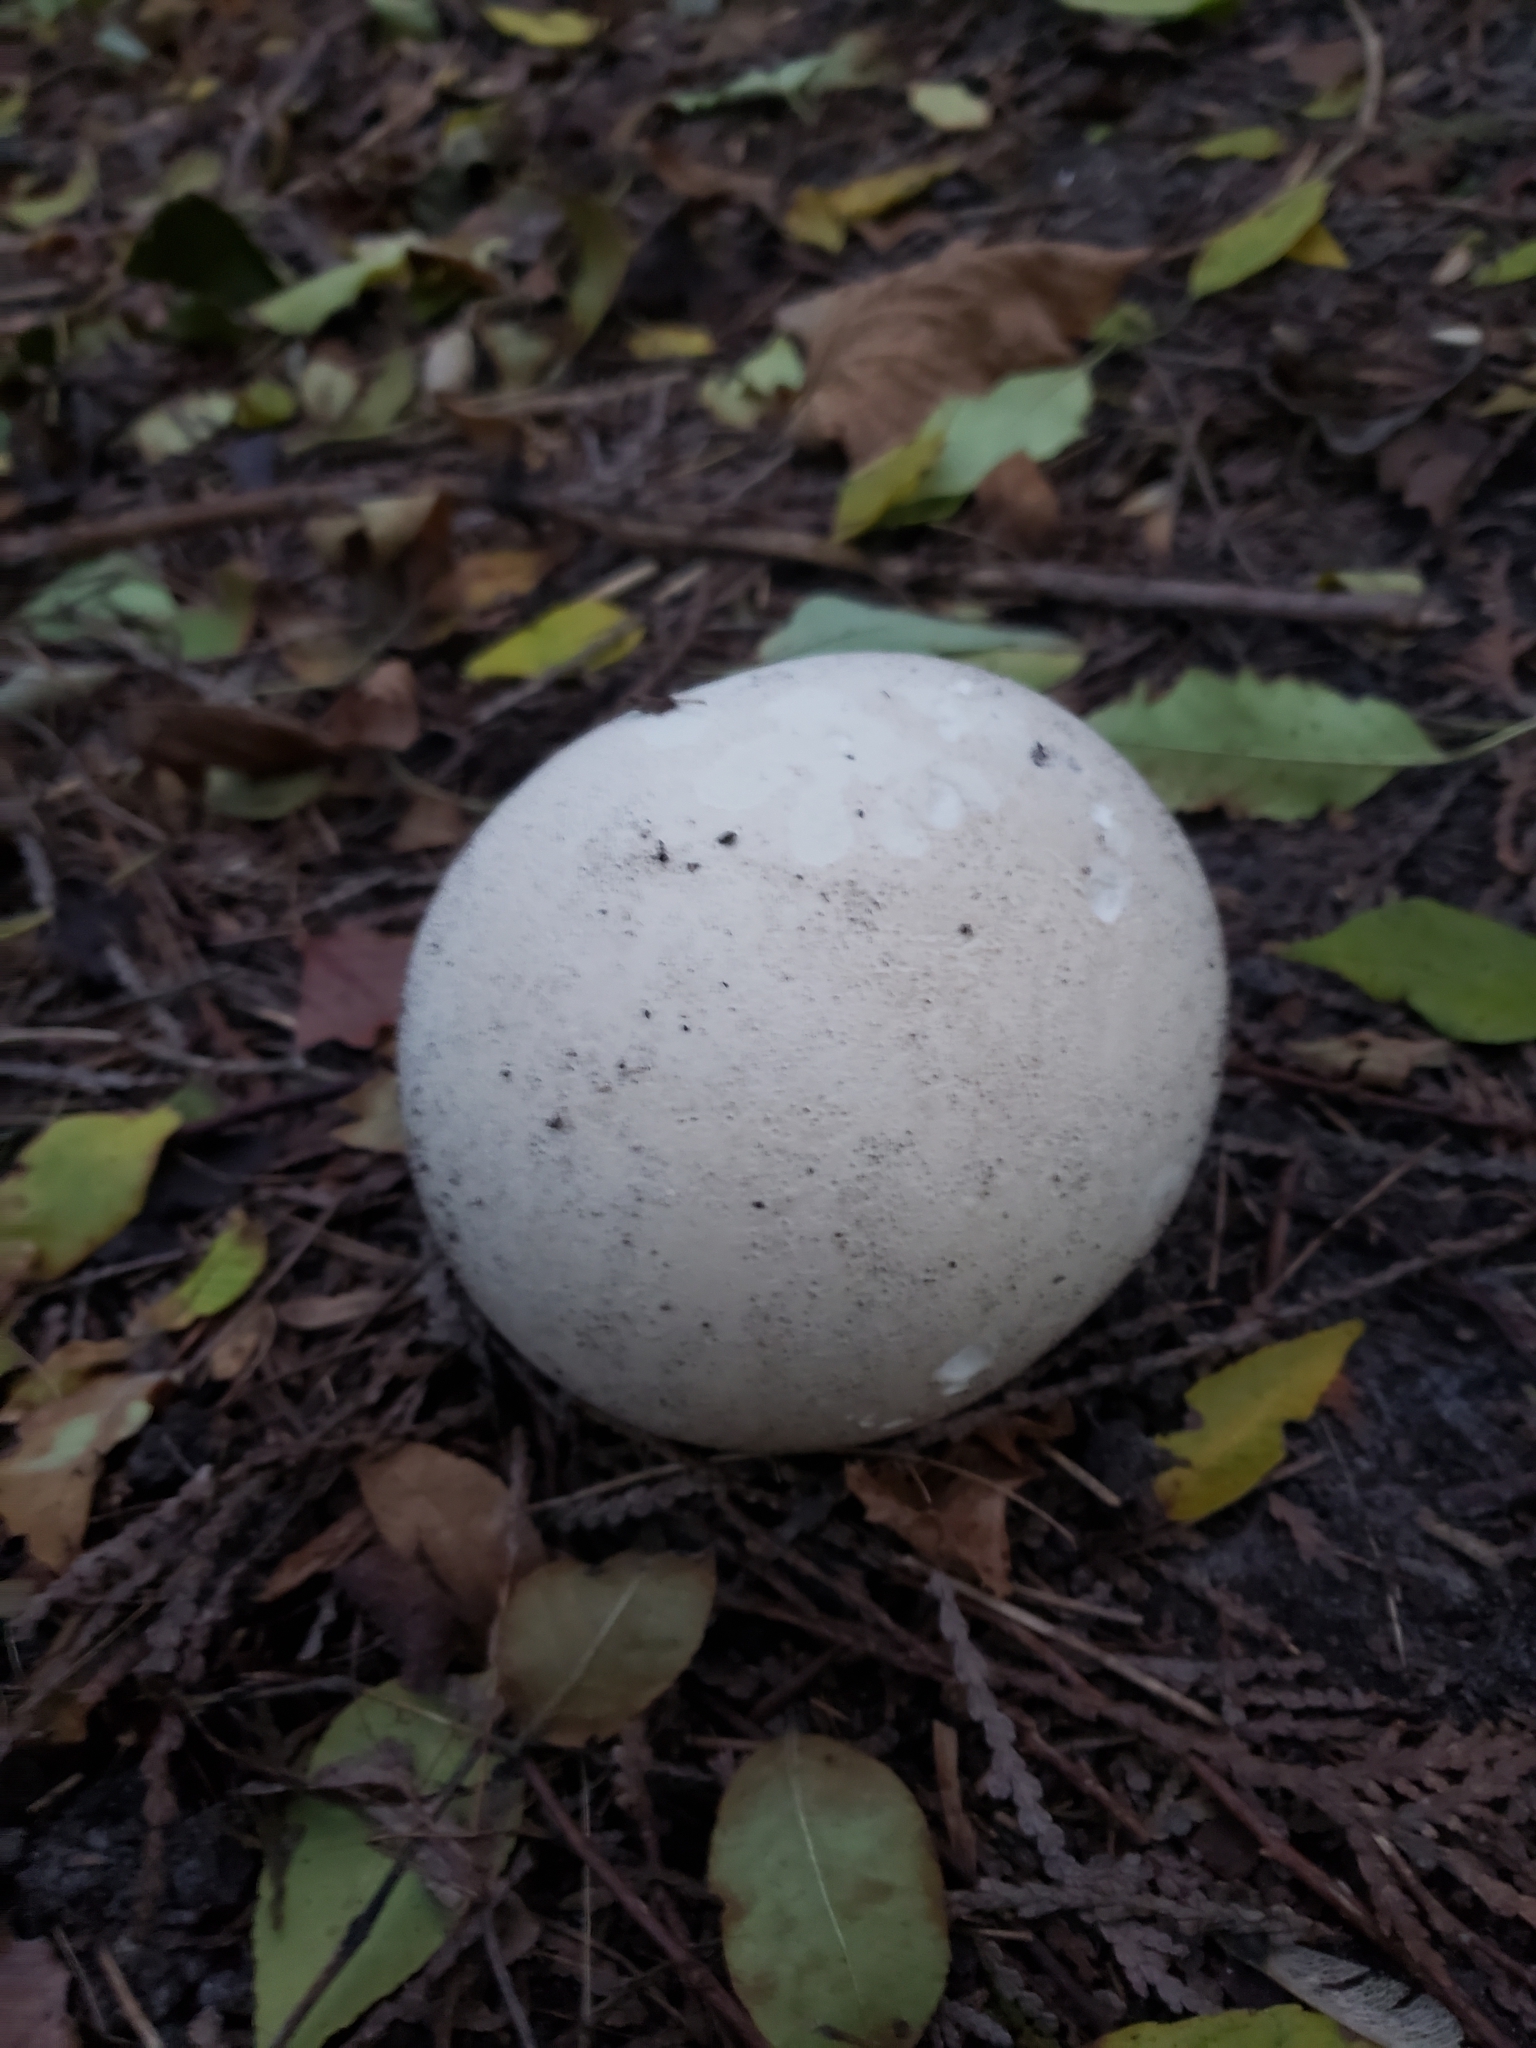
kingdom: Fungi
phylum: Basidiomycota
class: Agaricomycetes
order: Agaricales
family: Lycoperdaceae
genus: Calvatia
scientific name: Calvatia gigantea
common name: Giant puffball
